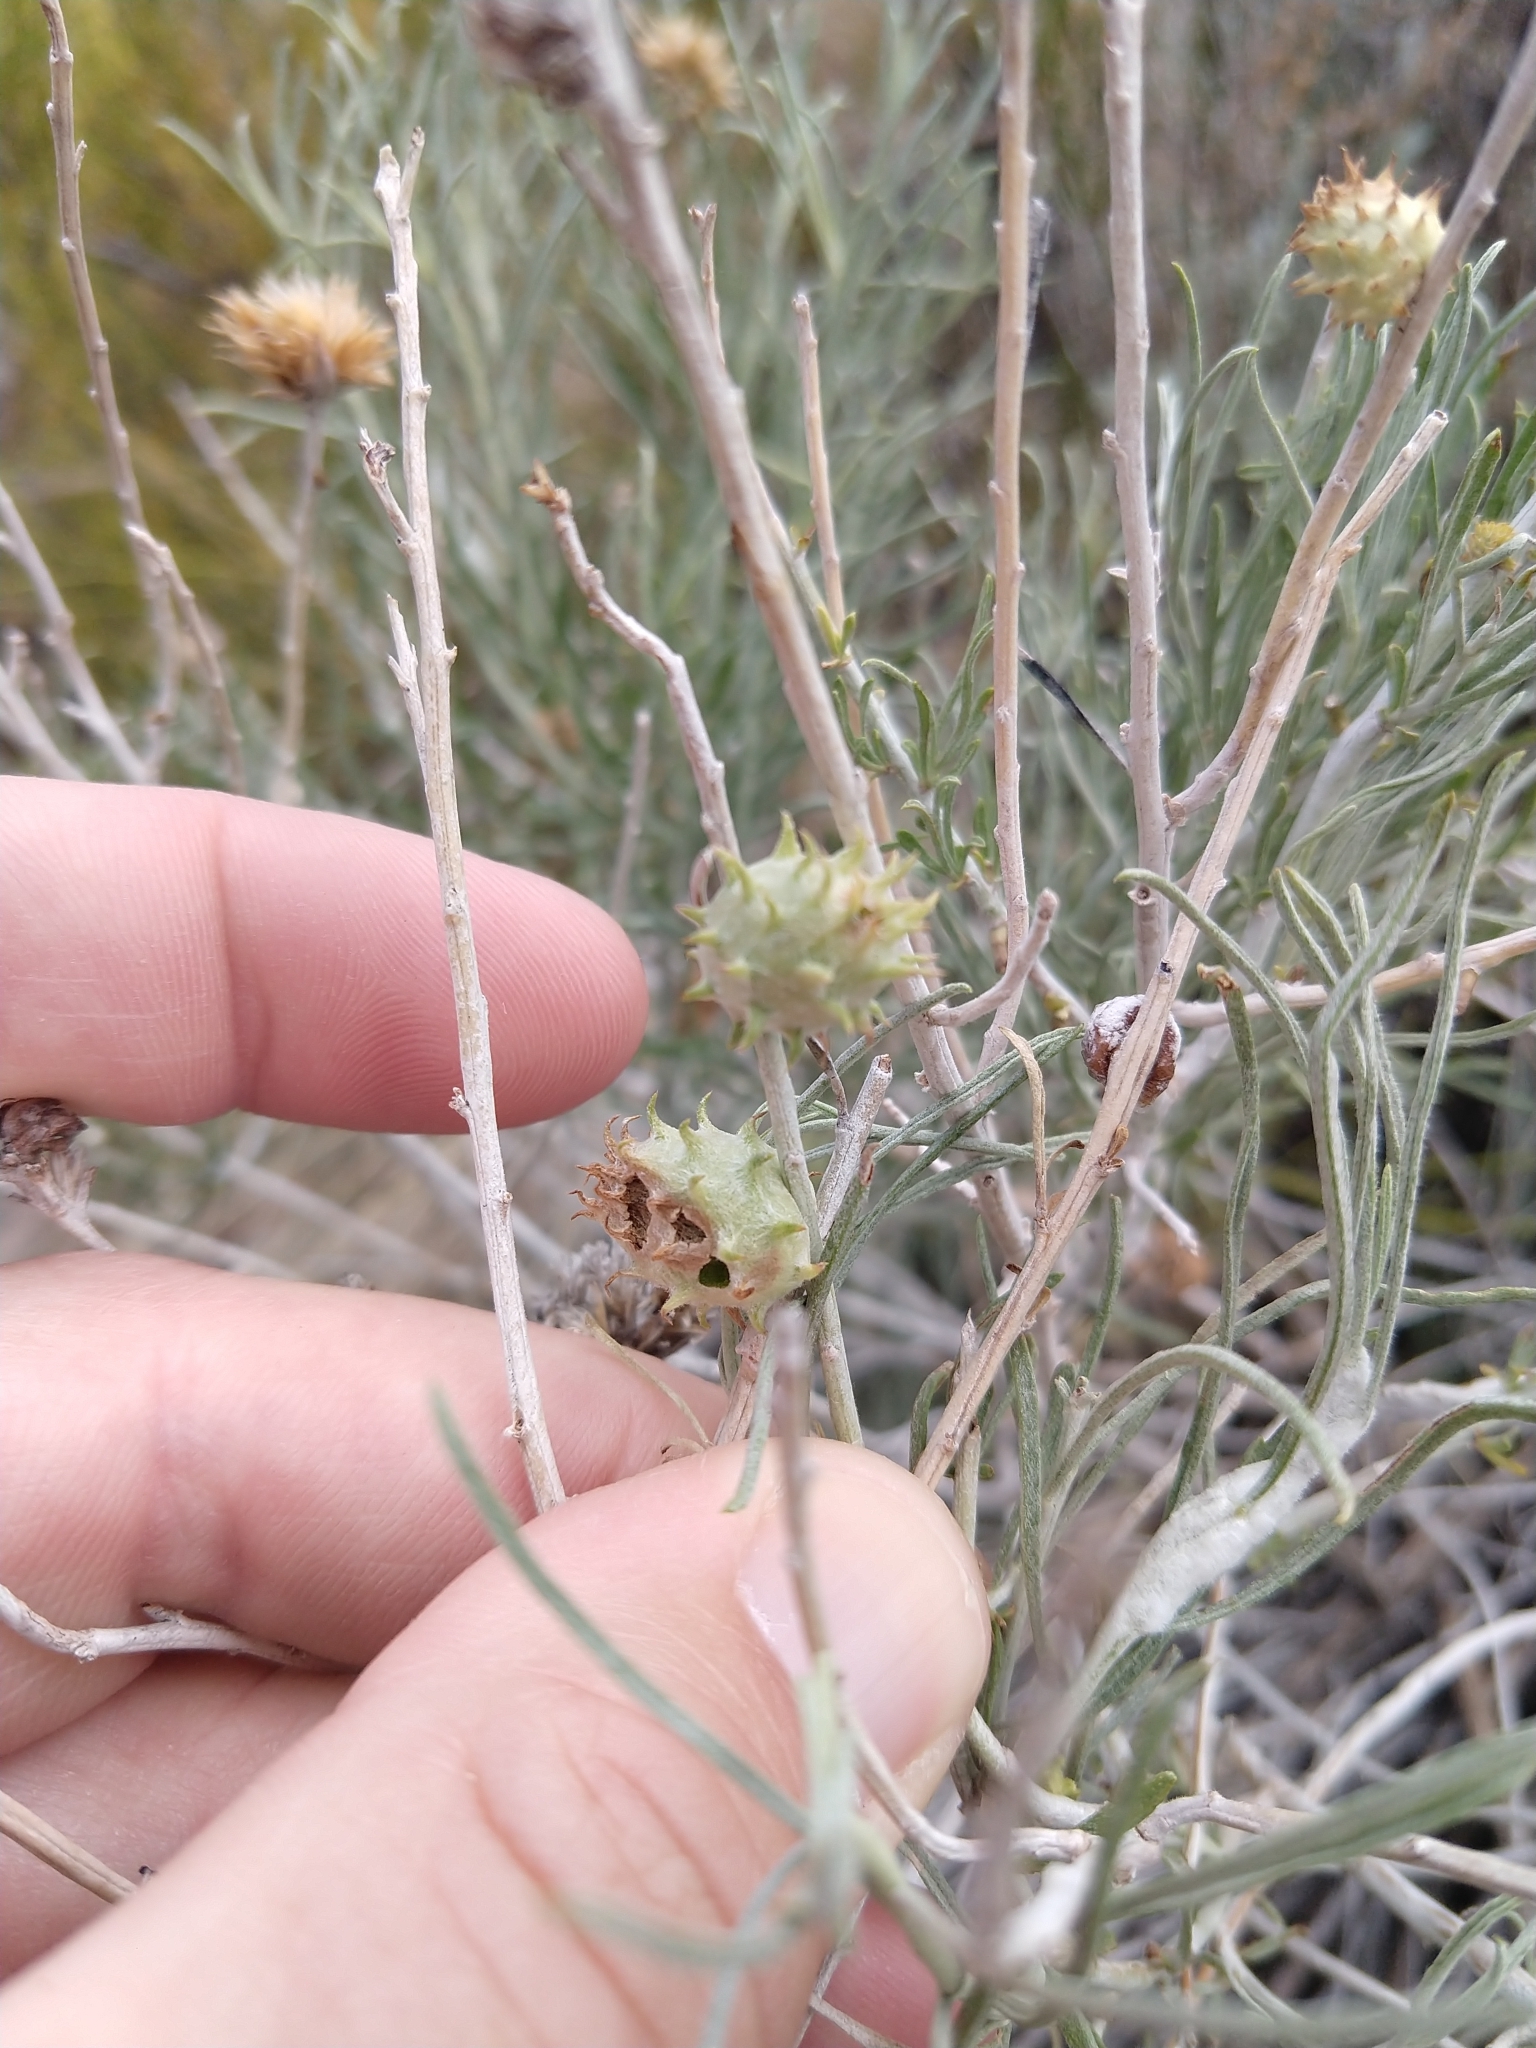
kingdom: Animalia
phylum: Arthropoda
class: Insecta
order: Diptera
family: Cecidomyiidae
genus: Rhopalomyia
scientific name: Rhopalomyia utahensis
